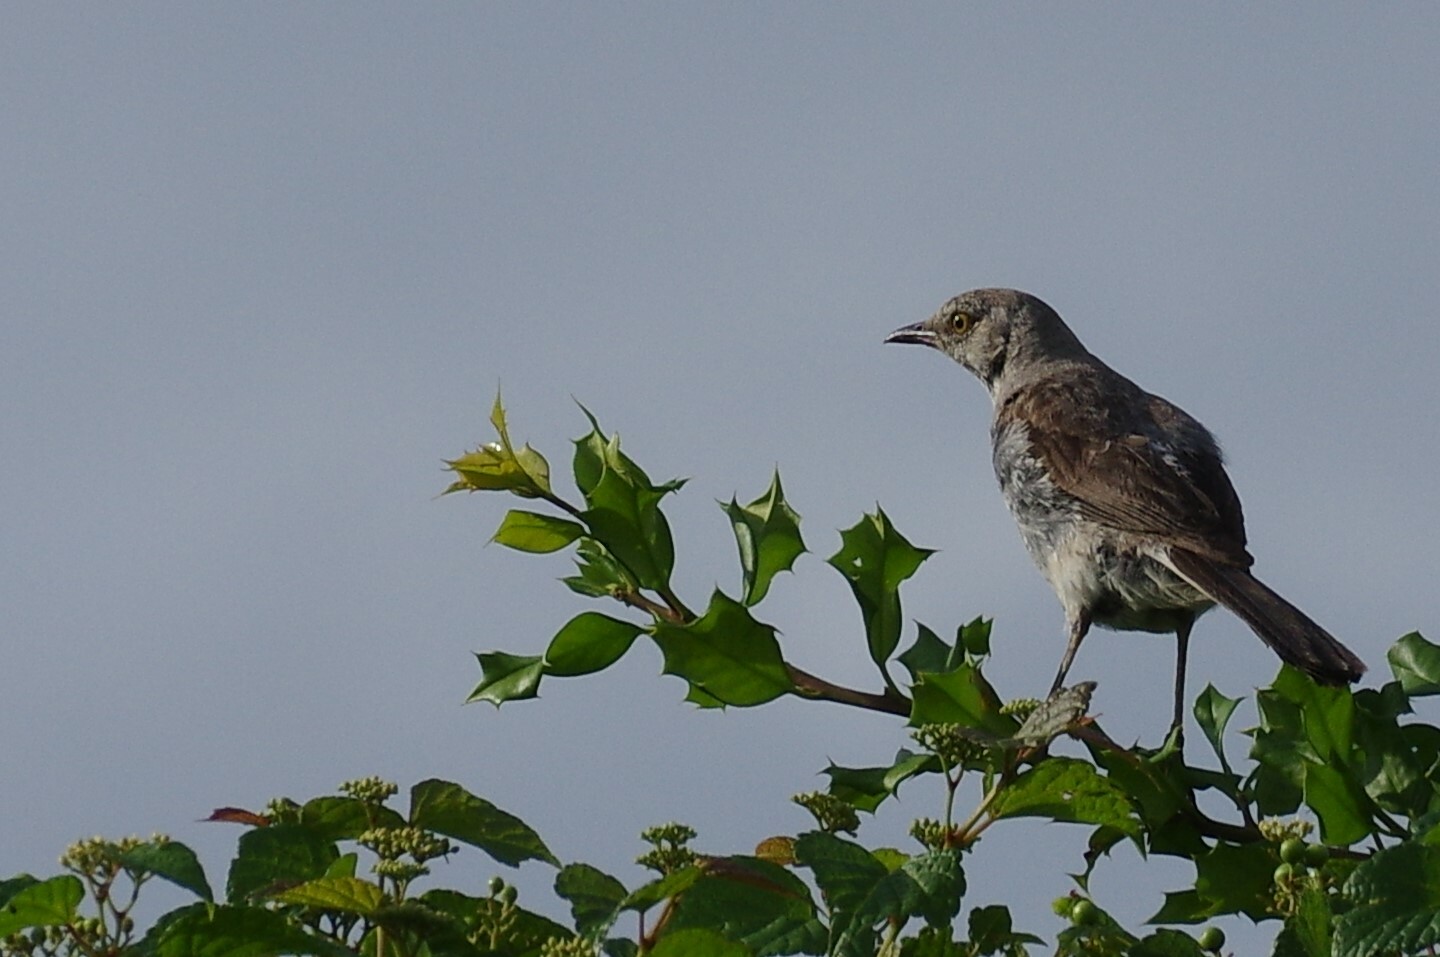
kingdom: Animalia
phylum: Chordata
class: Aves
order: Passeriformes
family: Mimidae
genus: Mimus
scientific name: Mimus polyglottos
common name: Northern mockingbird
